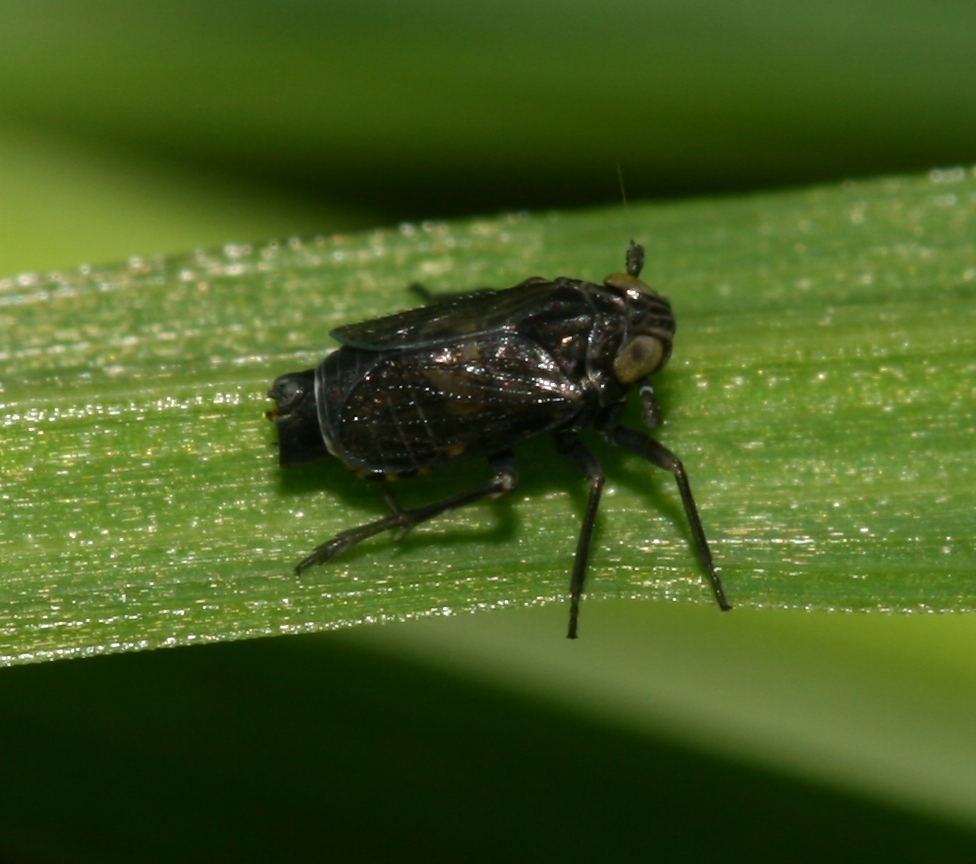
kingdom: Animalia
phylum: Arthropoda
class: Insecta
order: Hemiptera
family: Delphacidae
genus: Javesella
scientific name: Javesella dubia
